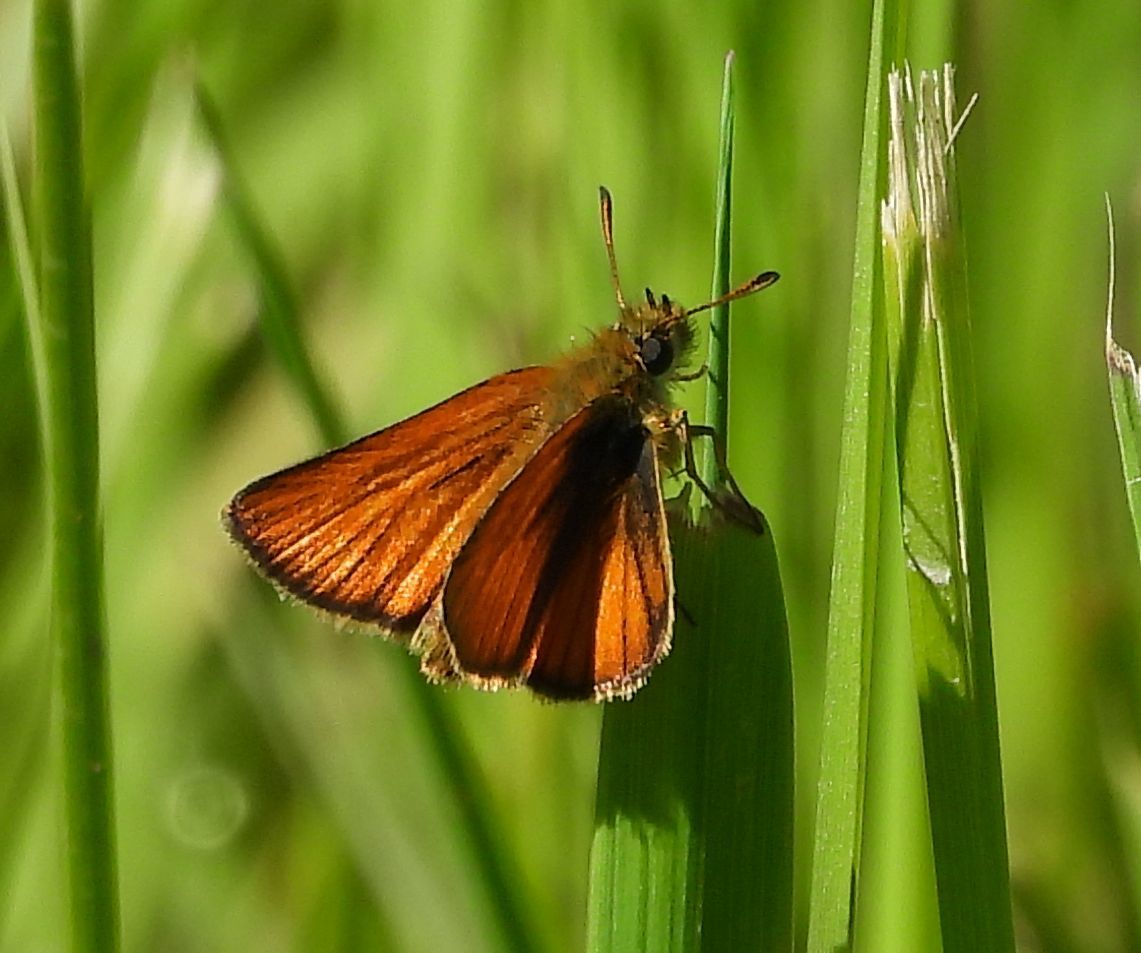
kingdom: Animalia
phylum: Arthropoda
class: Insecta
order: Lepidoptera
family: Hesperiidae
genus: Thymelicus
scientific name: Thymelicus lineola
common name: Essex skipper
